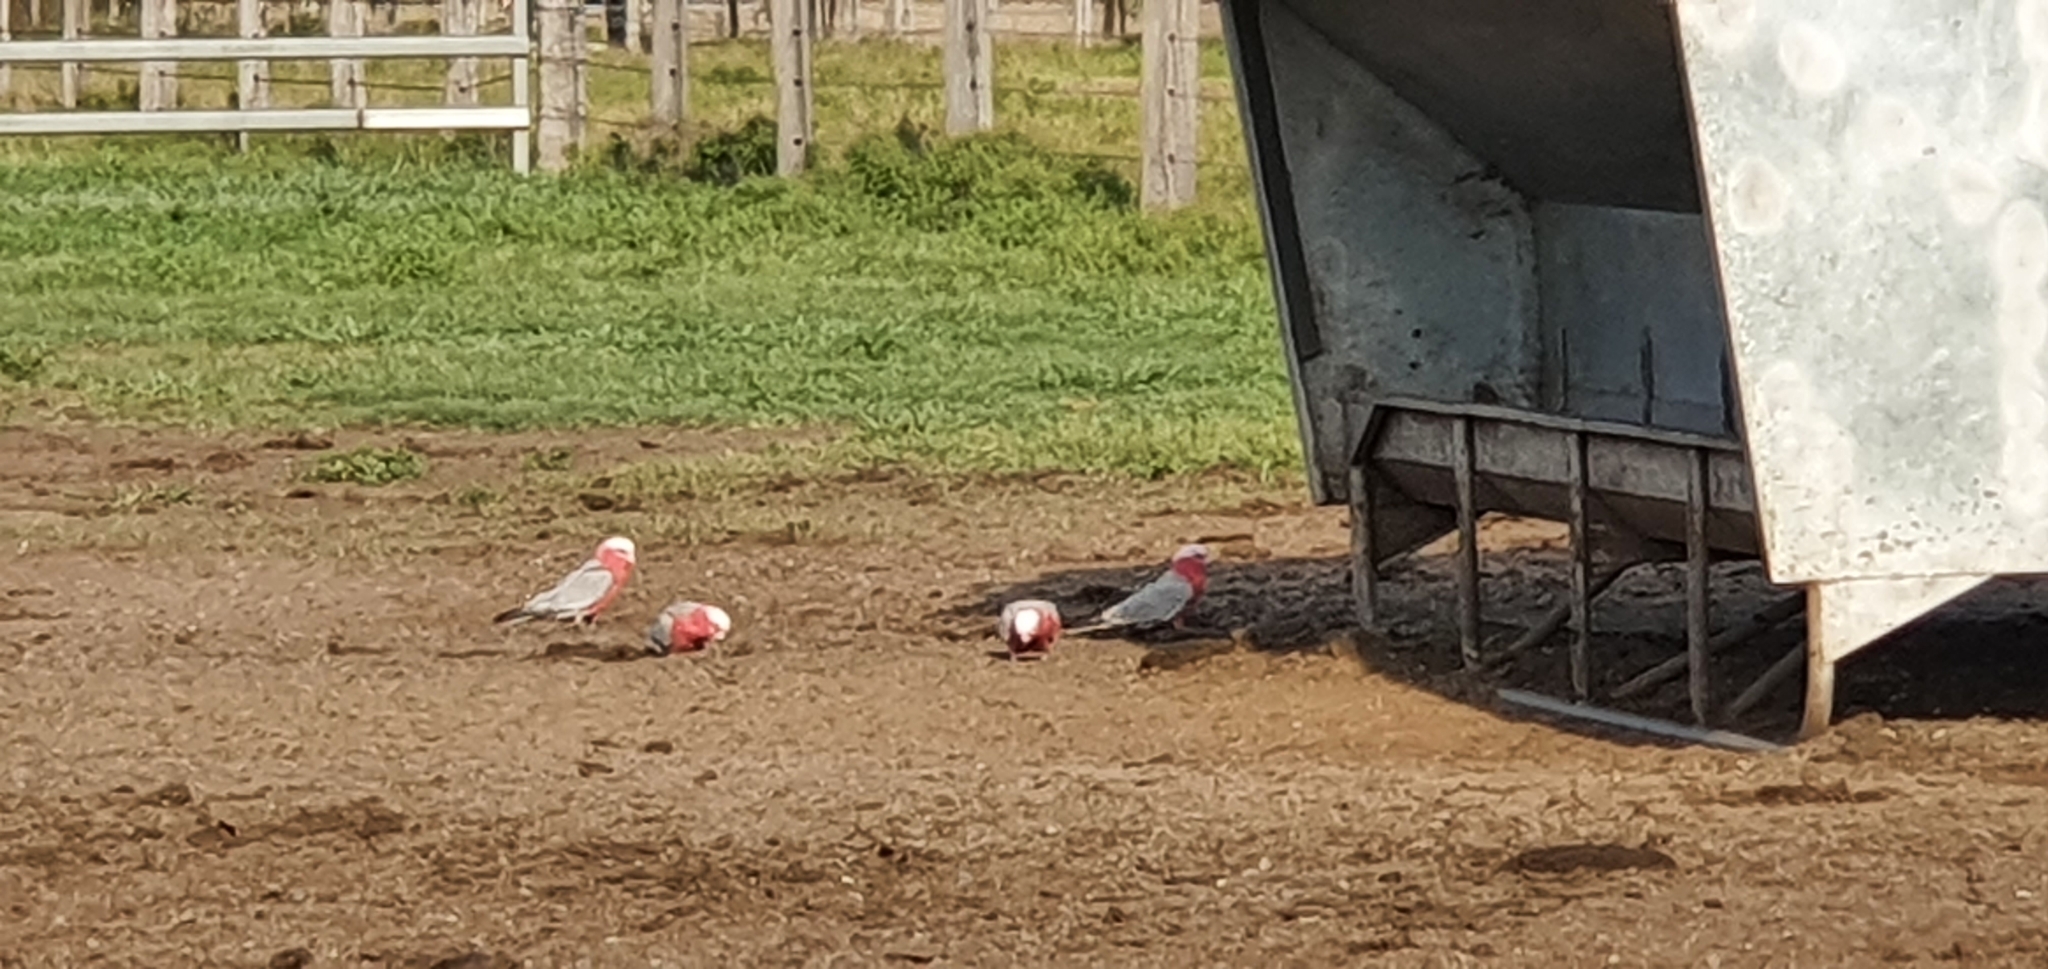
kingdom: Animalia
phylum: Chordata
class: Aves
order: Psittaciformes
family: Psittacidae
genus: Eolophus
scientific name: Eolophus roseicapilla
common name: Galah
